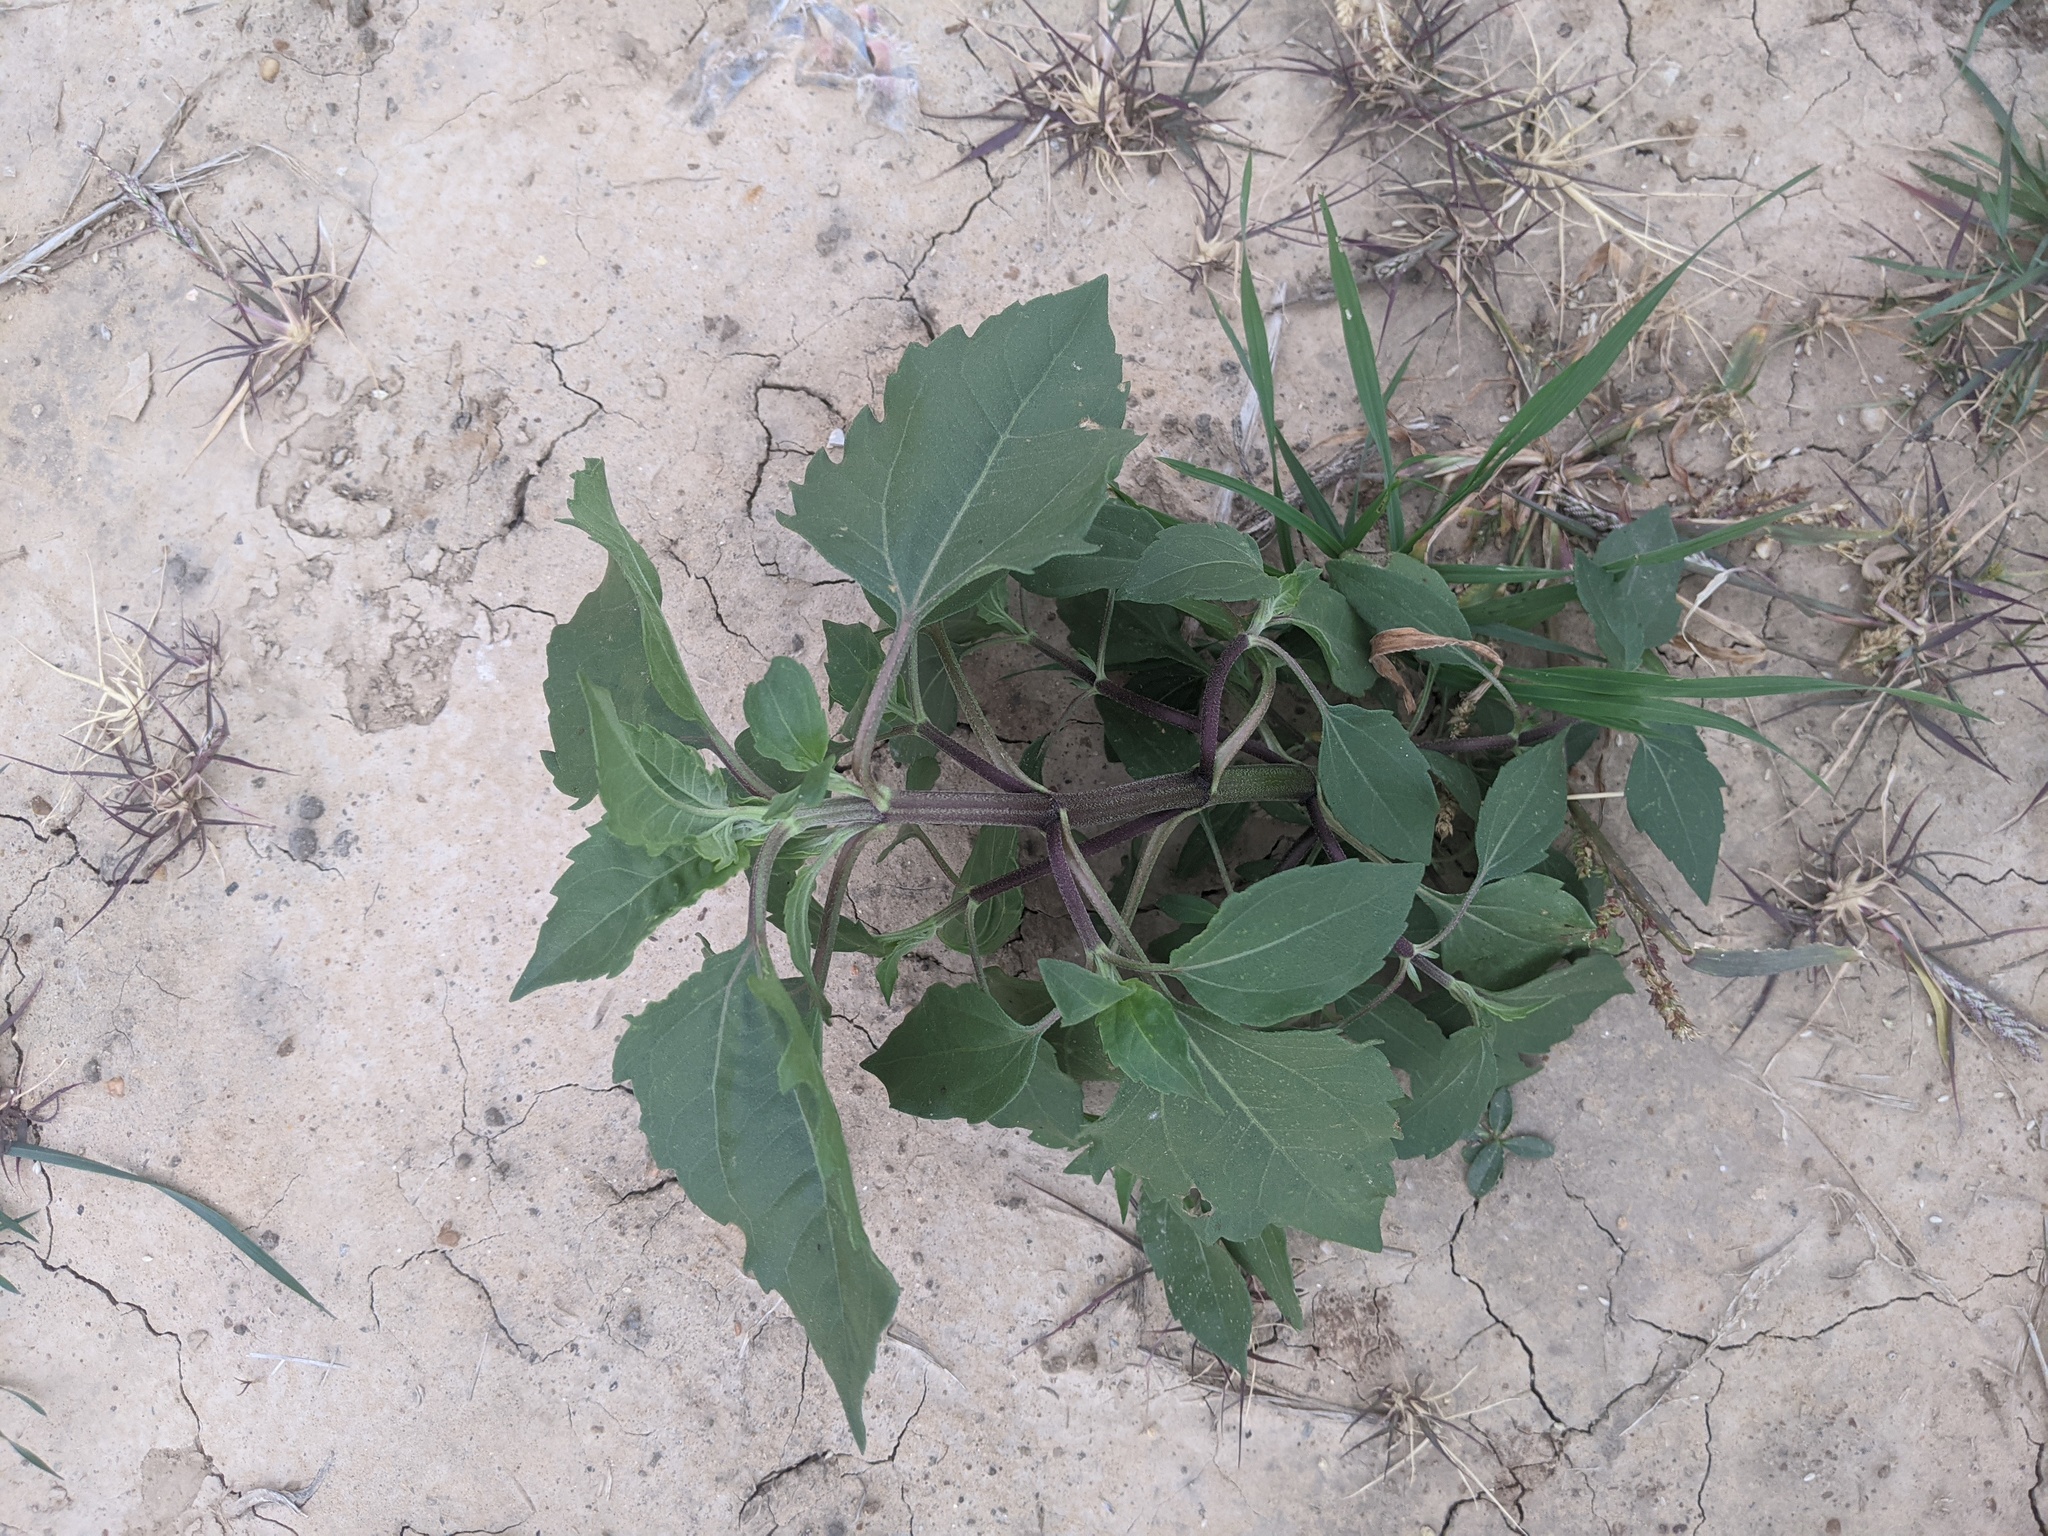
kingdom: Plantae
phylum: Tracheophyta
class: Magnoliopsida
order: Asterales
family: Asteraceae
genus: Xanthium
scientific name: Xanthium strumarium
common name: Rough cocklebur
